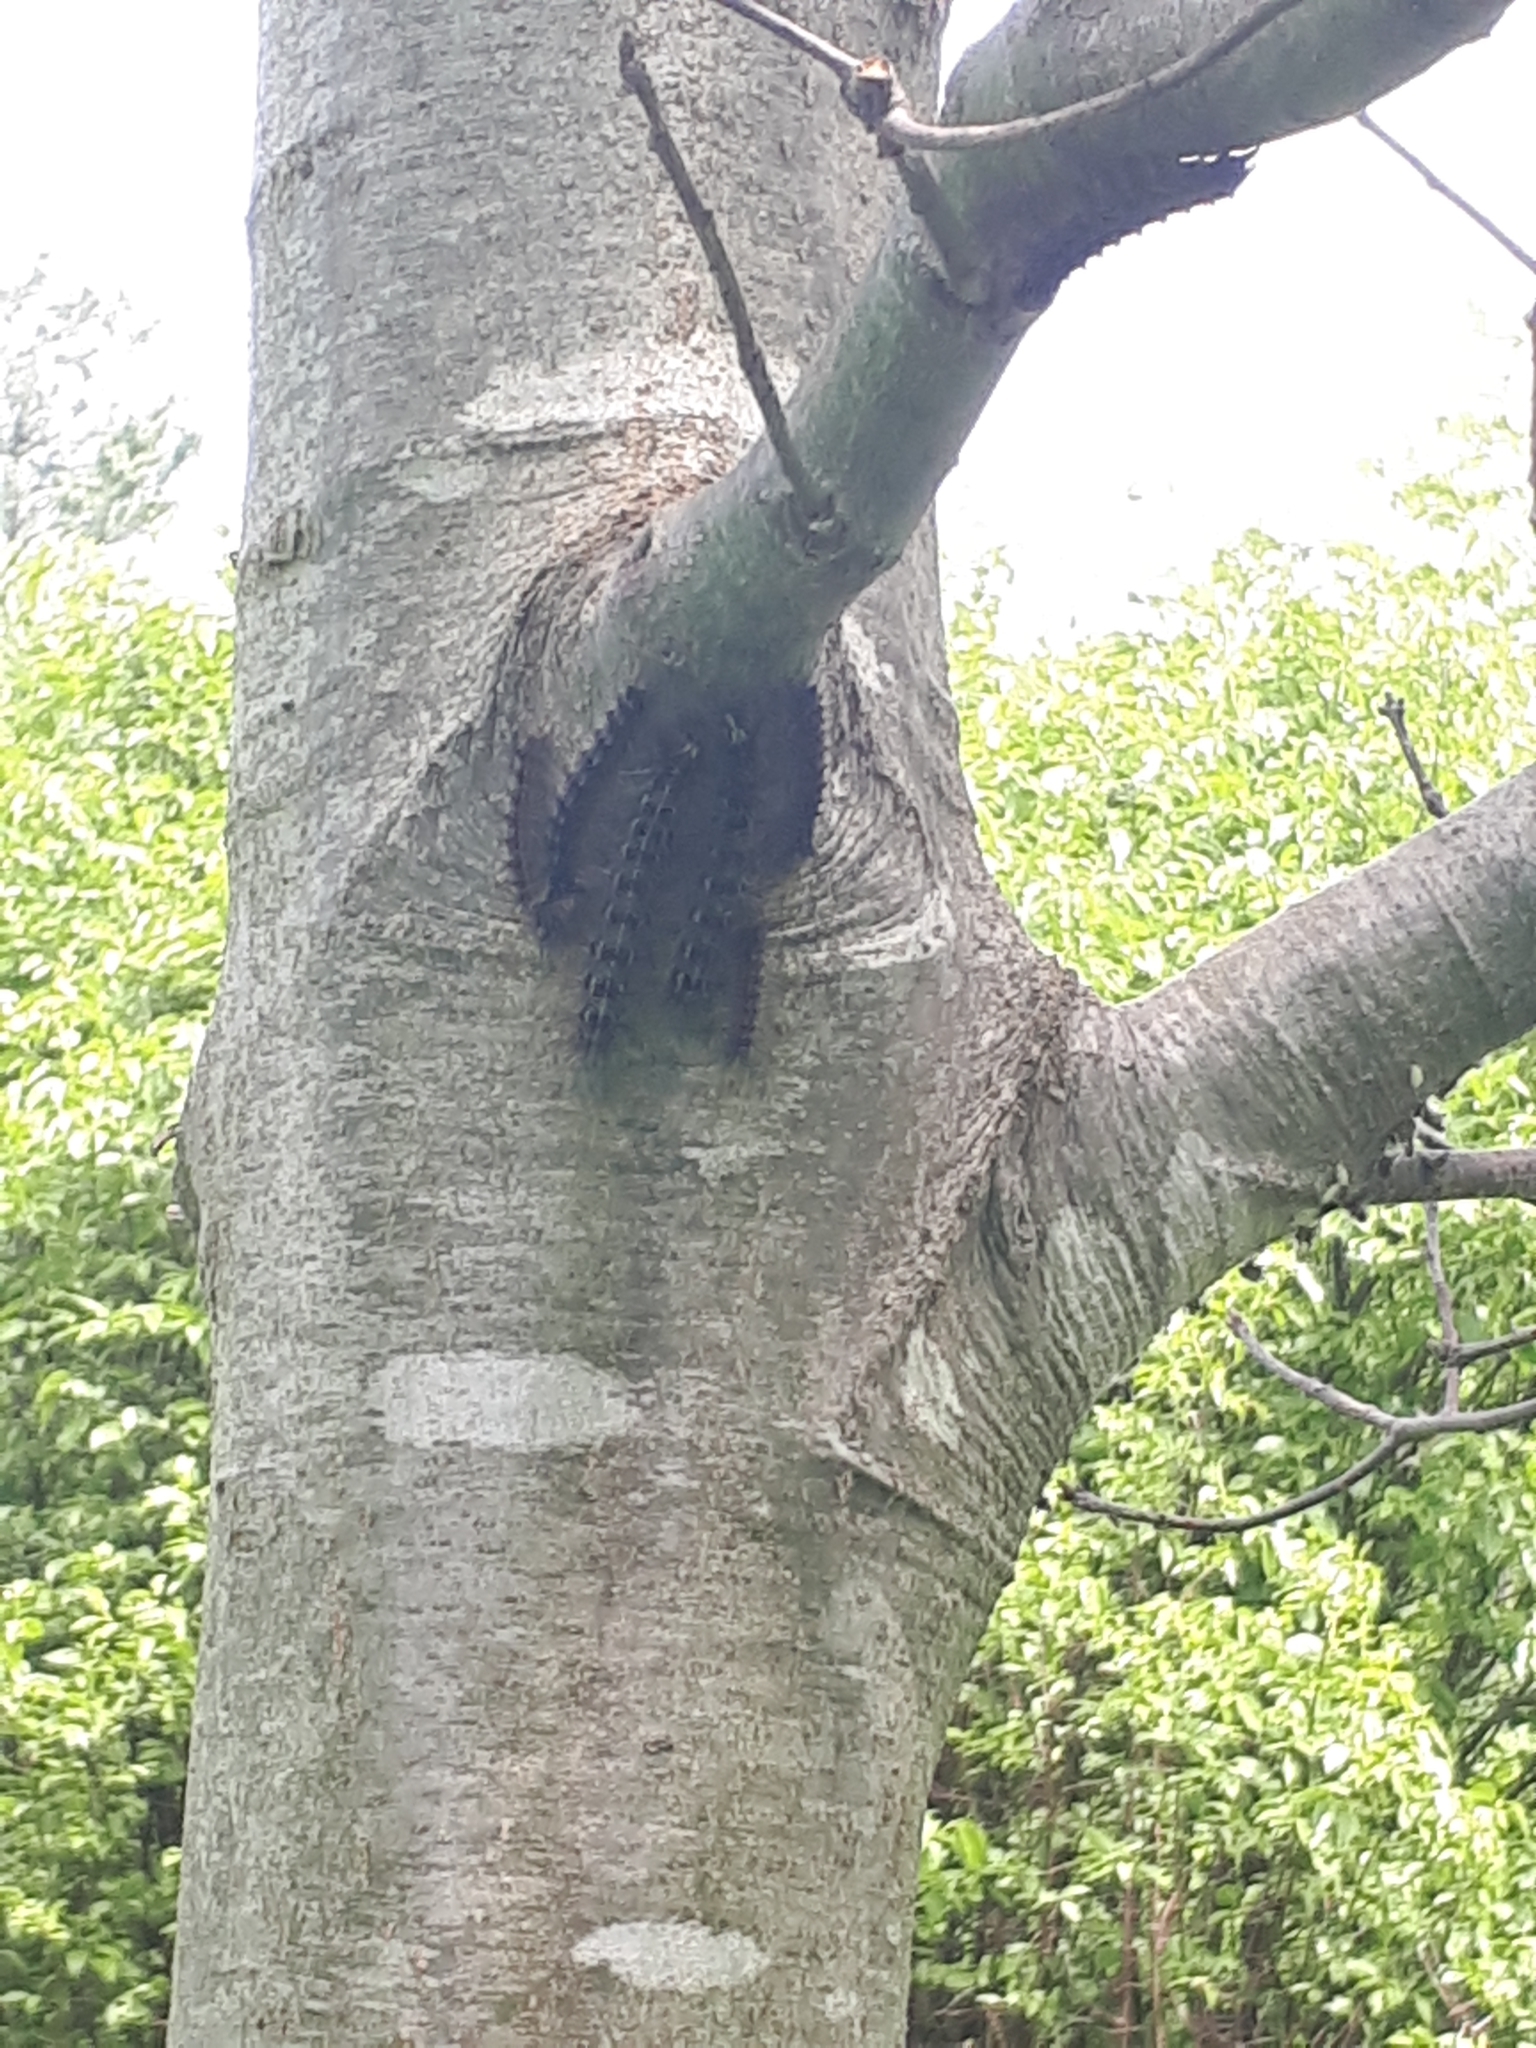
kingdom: Animalia
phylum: Arthropoda
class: Insecta
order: Lepidoptera
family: Erebidae
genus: Lymantria
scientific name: Lymantria dispar
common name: Gypsy moth
